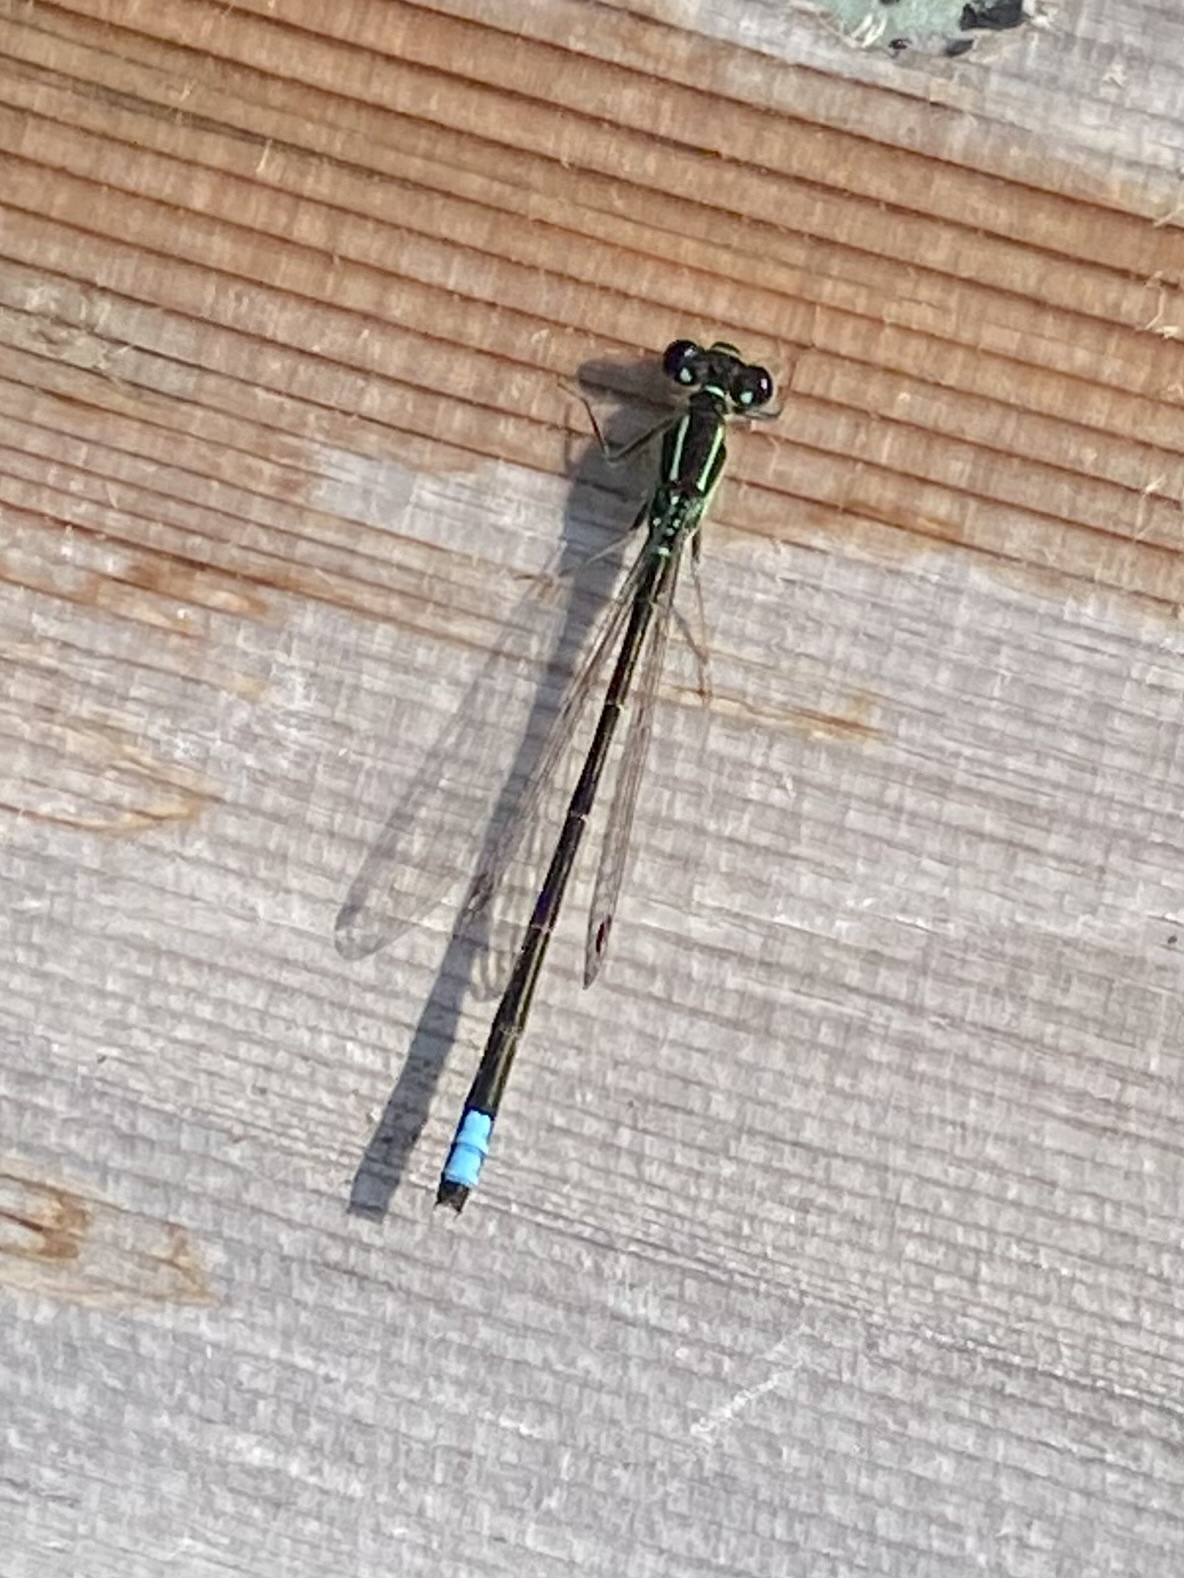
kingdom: Animalia
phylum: Arthropoda
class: Insecta
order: Odonata
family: Coenagrionidae
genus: Ischnura
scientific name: Ischnura verticalis
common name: Eastern forktail
